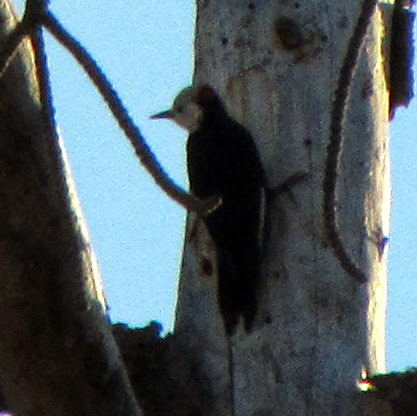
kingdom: Animalia
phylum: Chordata
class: Aves
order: Piciformes
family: Picidae
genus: Leuconotopicus
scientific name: Leuconotopicus albolarvatus
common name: White-headed woodpecker
